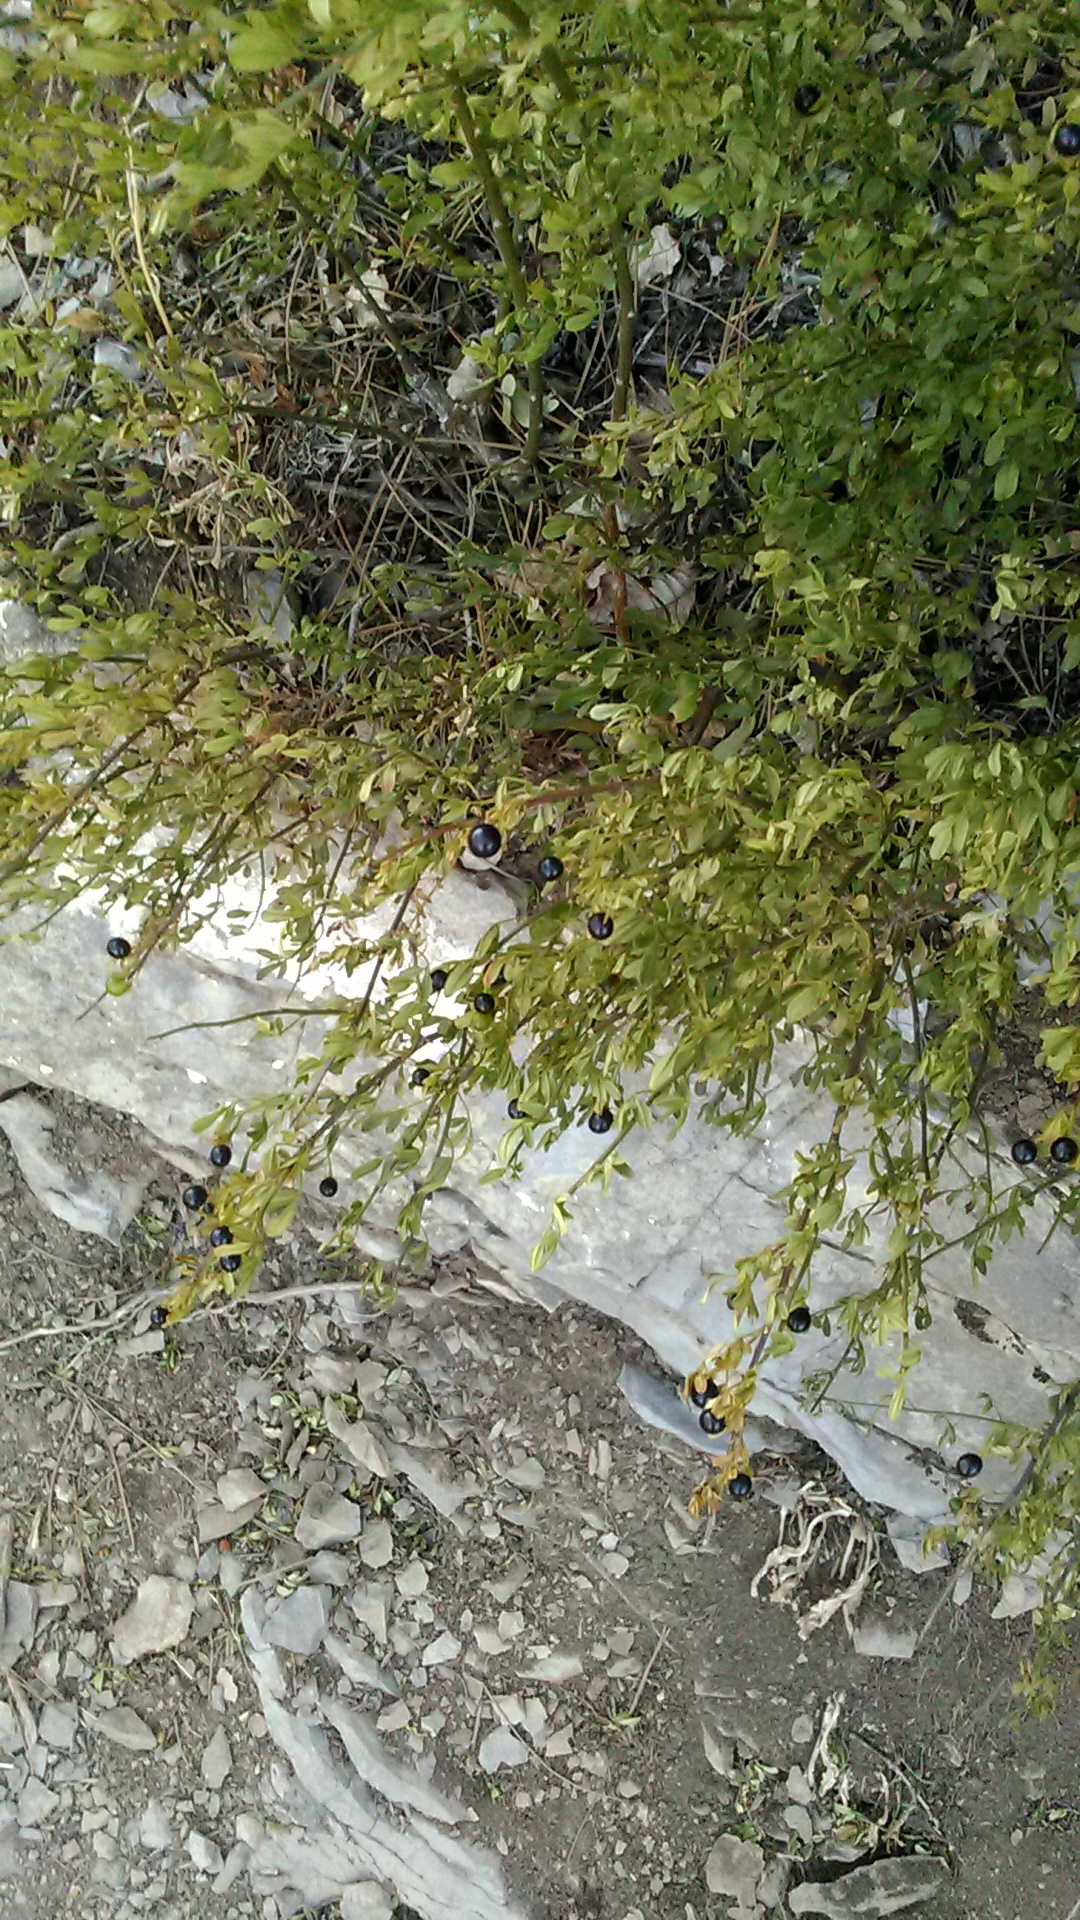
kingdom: Plantae
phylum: Tracheophyta
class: Magnoliopsida
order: Lamiales
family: Oleaceae
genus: Chrysojasminum
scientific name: Chrysojasminum fruticans
